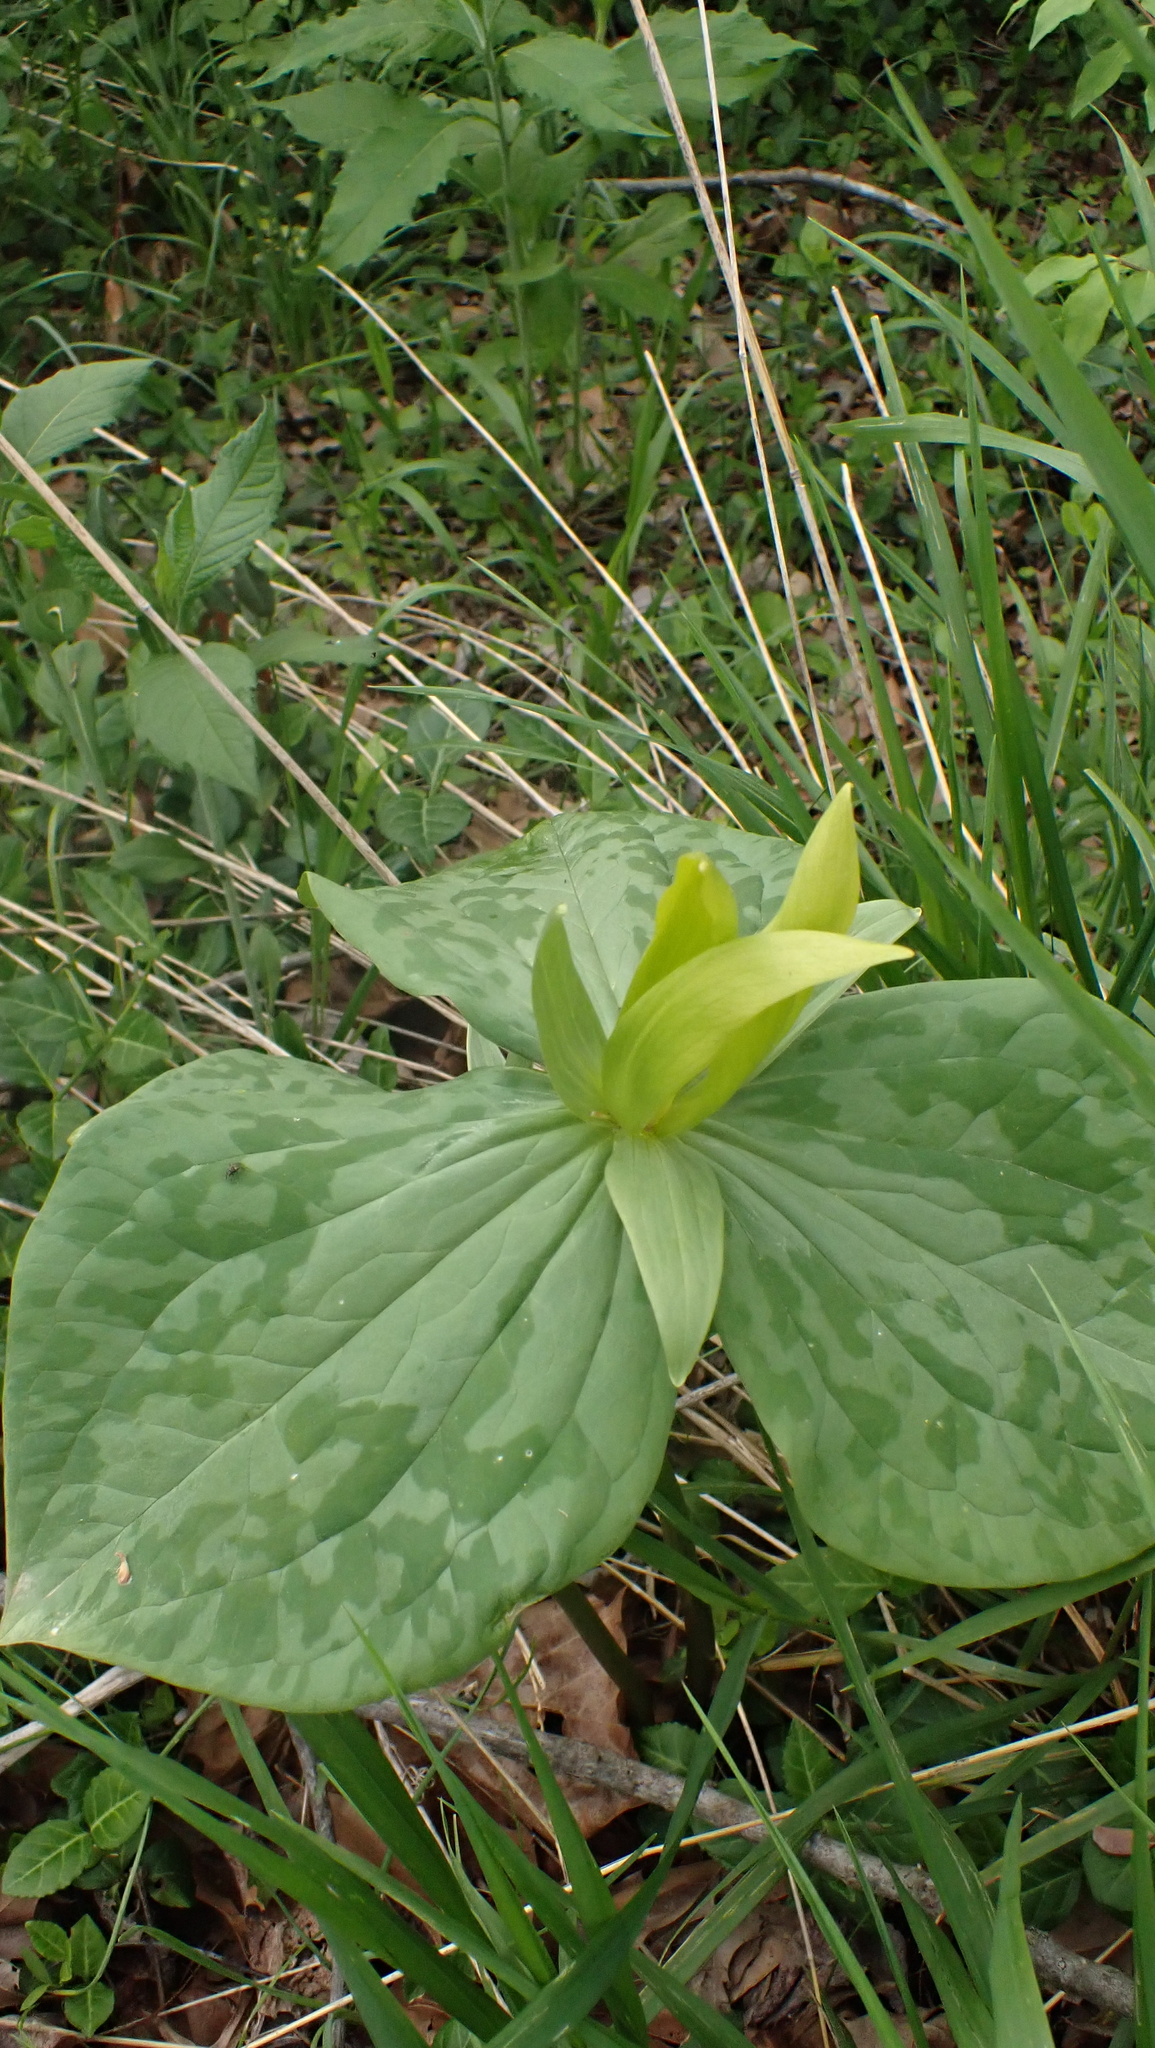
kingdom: Plantae
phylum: Tracheophyta
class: Liliopsida
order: Liliales
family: Melanthiaceae
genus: Trillium
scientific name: Trillium luteum
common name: Wax trillium
